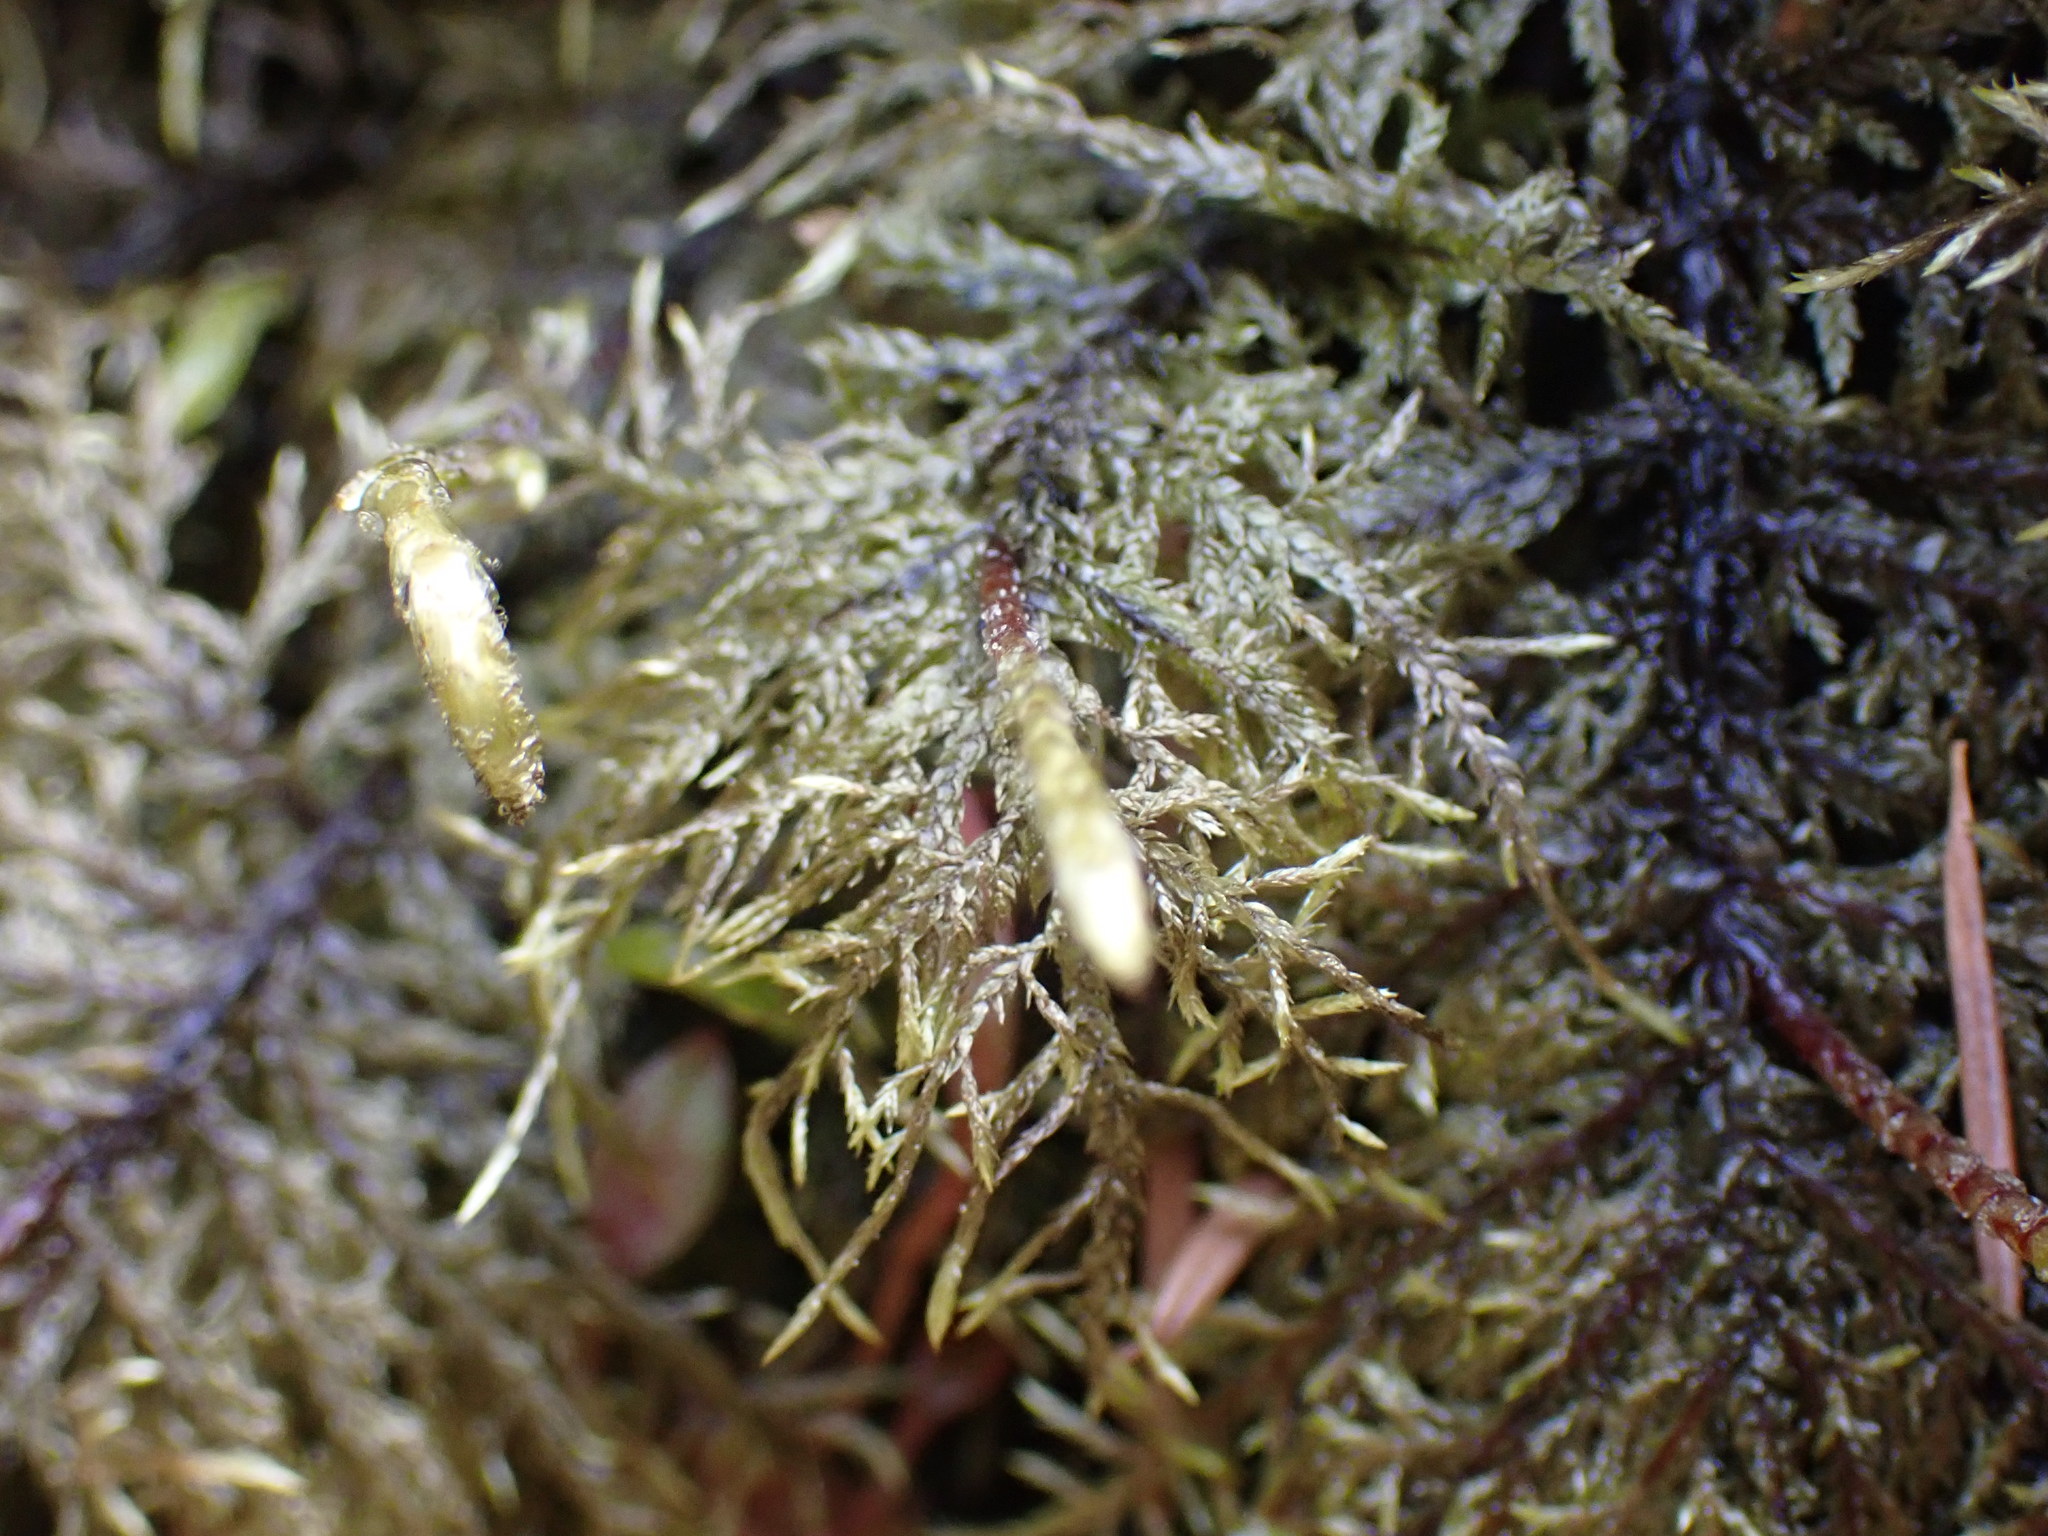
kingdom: Plantae
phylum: Bryophyta
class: Bryopsida
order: Hypnales
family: Hylocomiaceae
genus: Hylocomium
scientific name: Hylocomium splendens
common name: Stairstep moss
